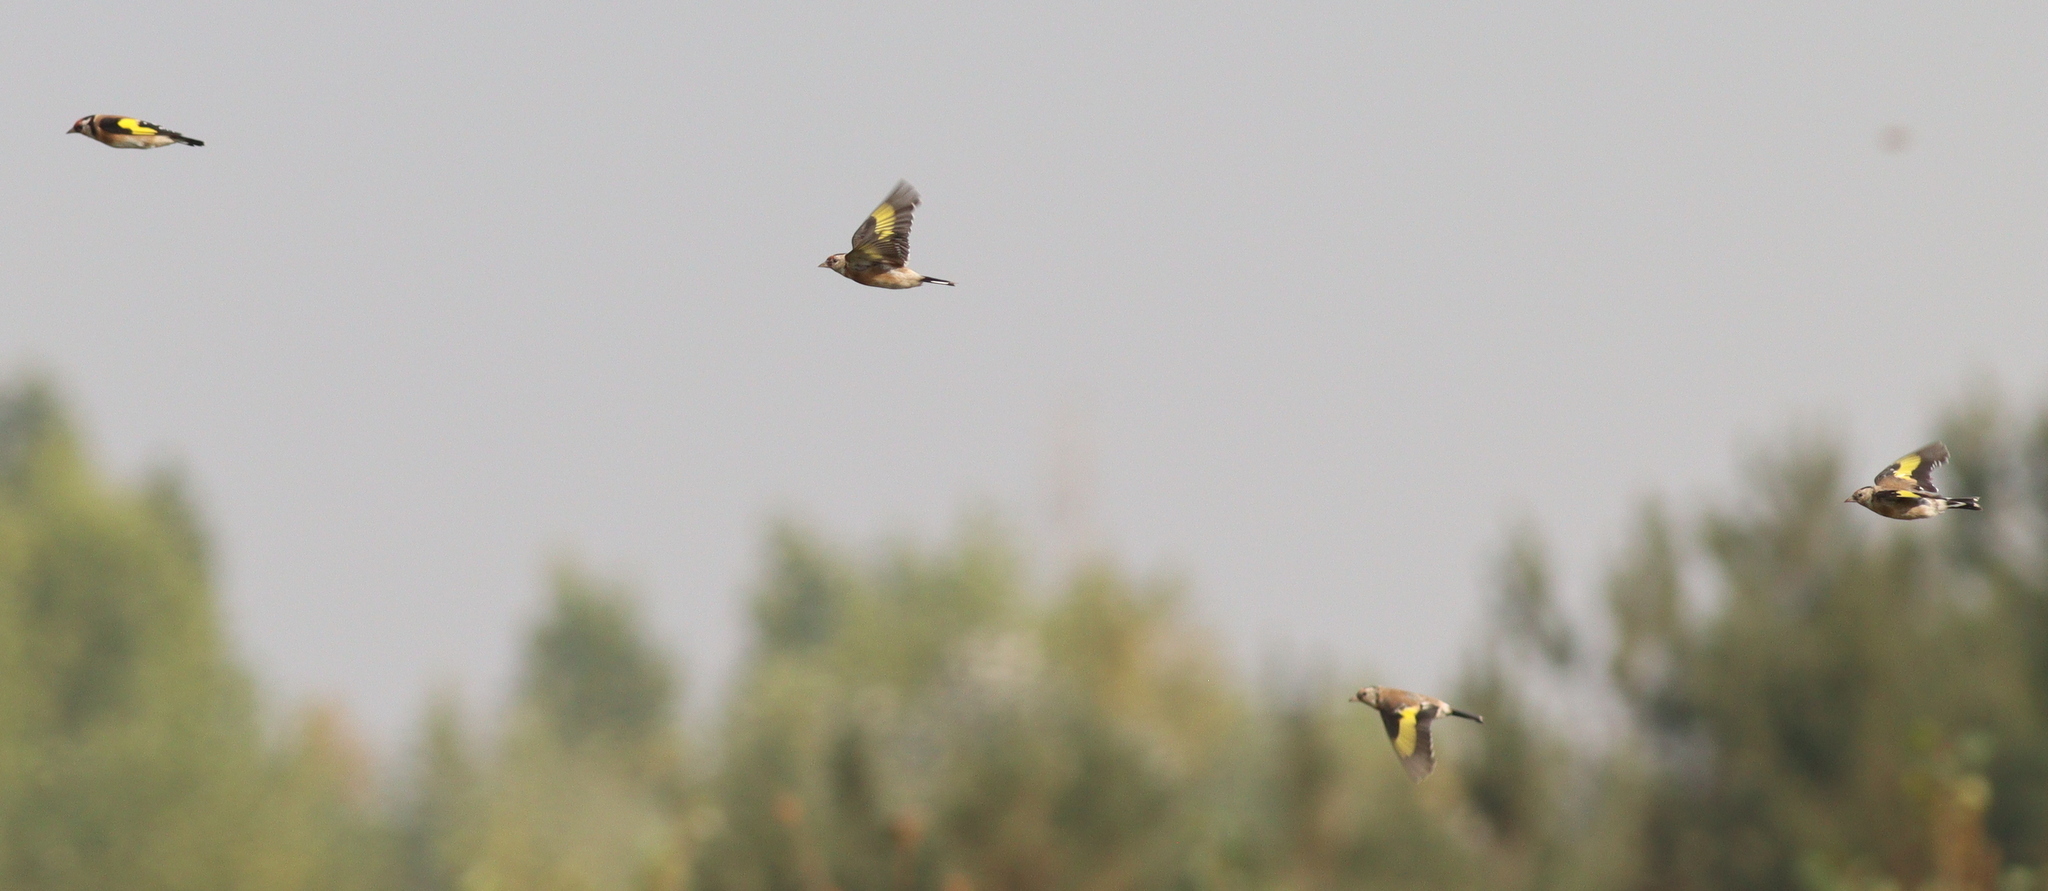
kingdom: Animalia
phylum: Chordata
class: Aves
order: Passeriformes
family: Fringillidae
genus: Carduelis
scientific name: Carduelis carduelis
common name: European goldfinch
